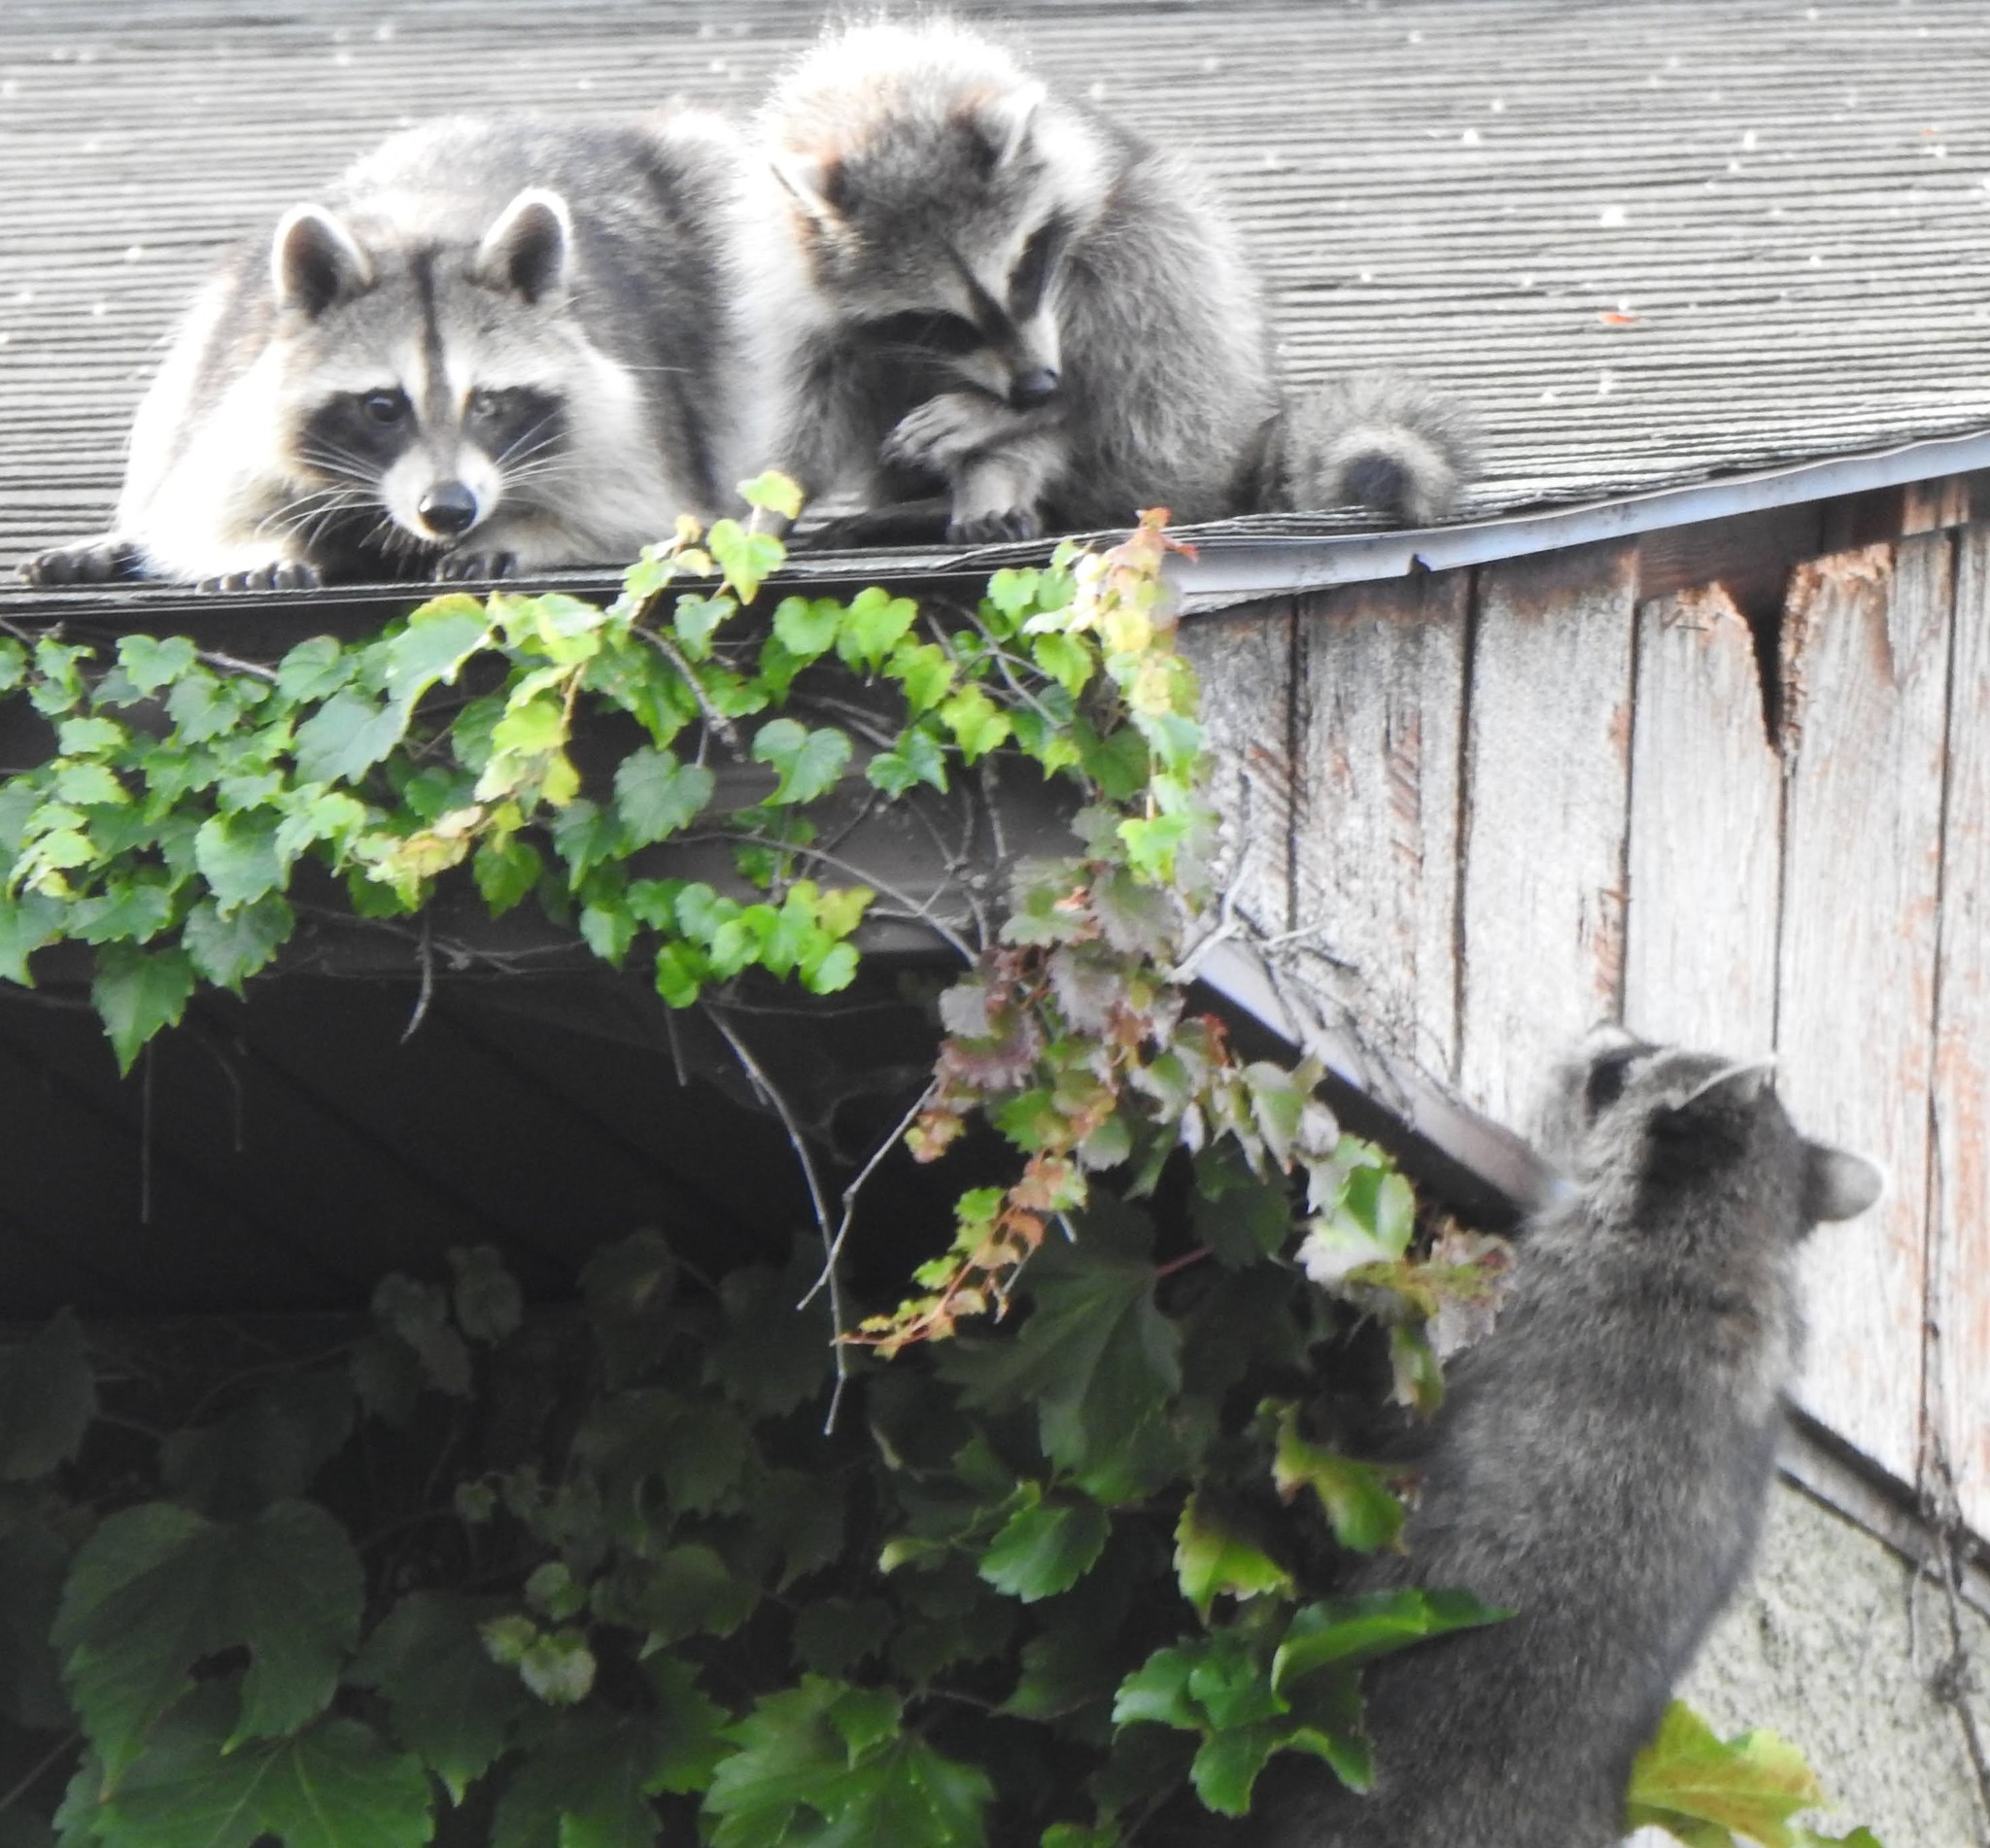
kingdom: Animalia
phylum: Chordata
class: Mammalia
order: Carnivora
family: Procyonidae
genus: Procyon
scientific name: Procyon lotor
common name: Raccoon
